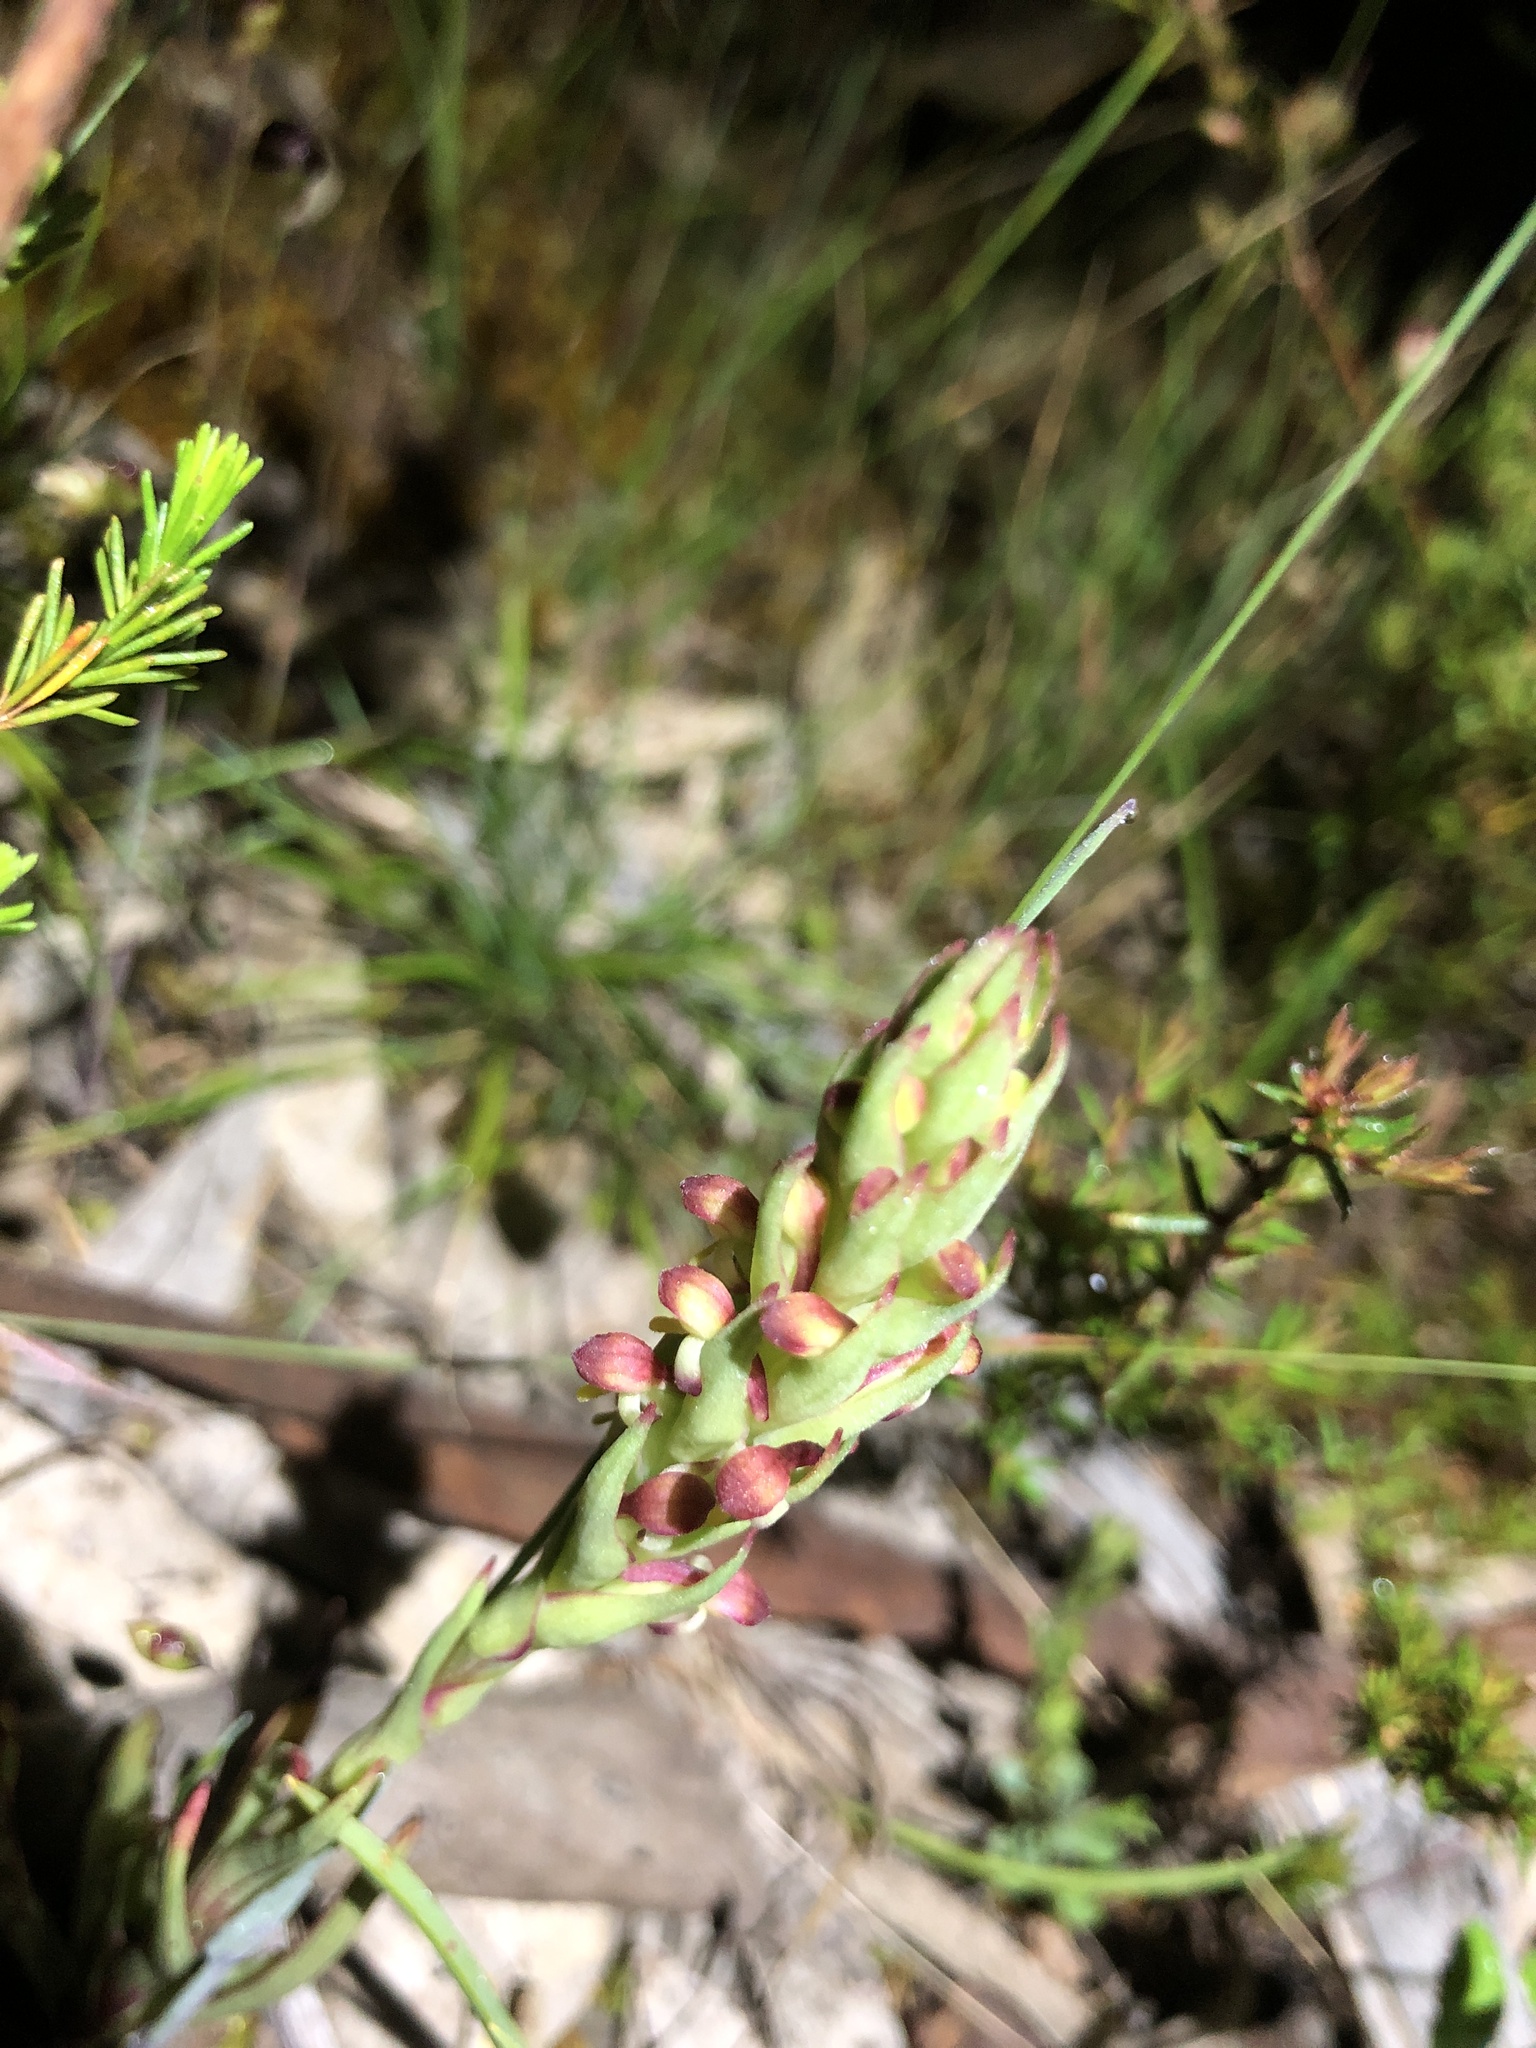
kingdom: Plantae
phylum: Tracheophyta
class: Liliopsida
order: Asparagales
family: Orchidaceae
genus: Disa
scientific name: Disa bracteata
